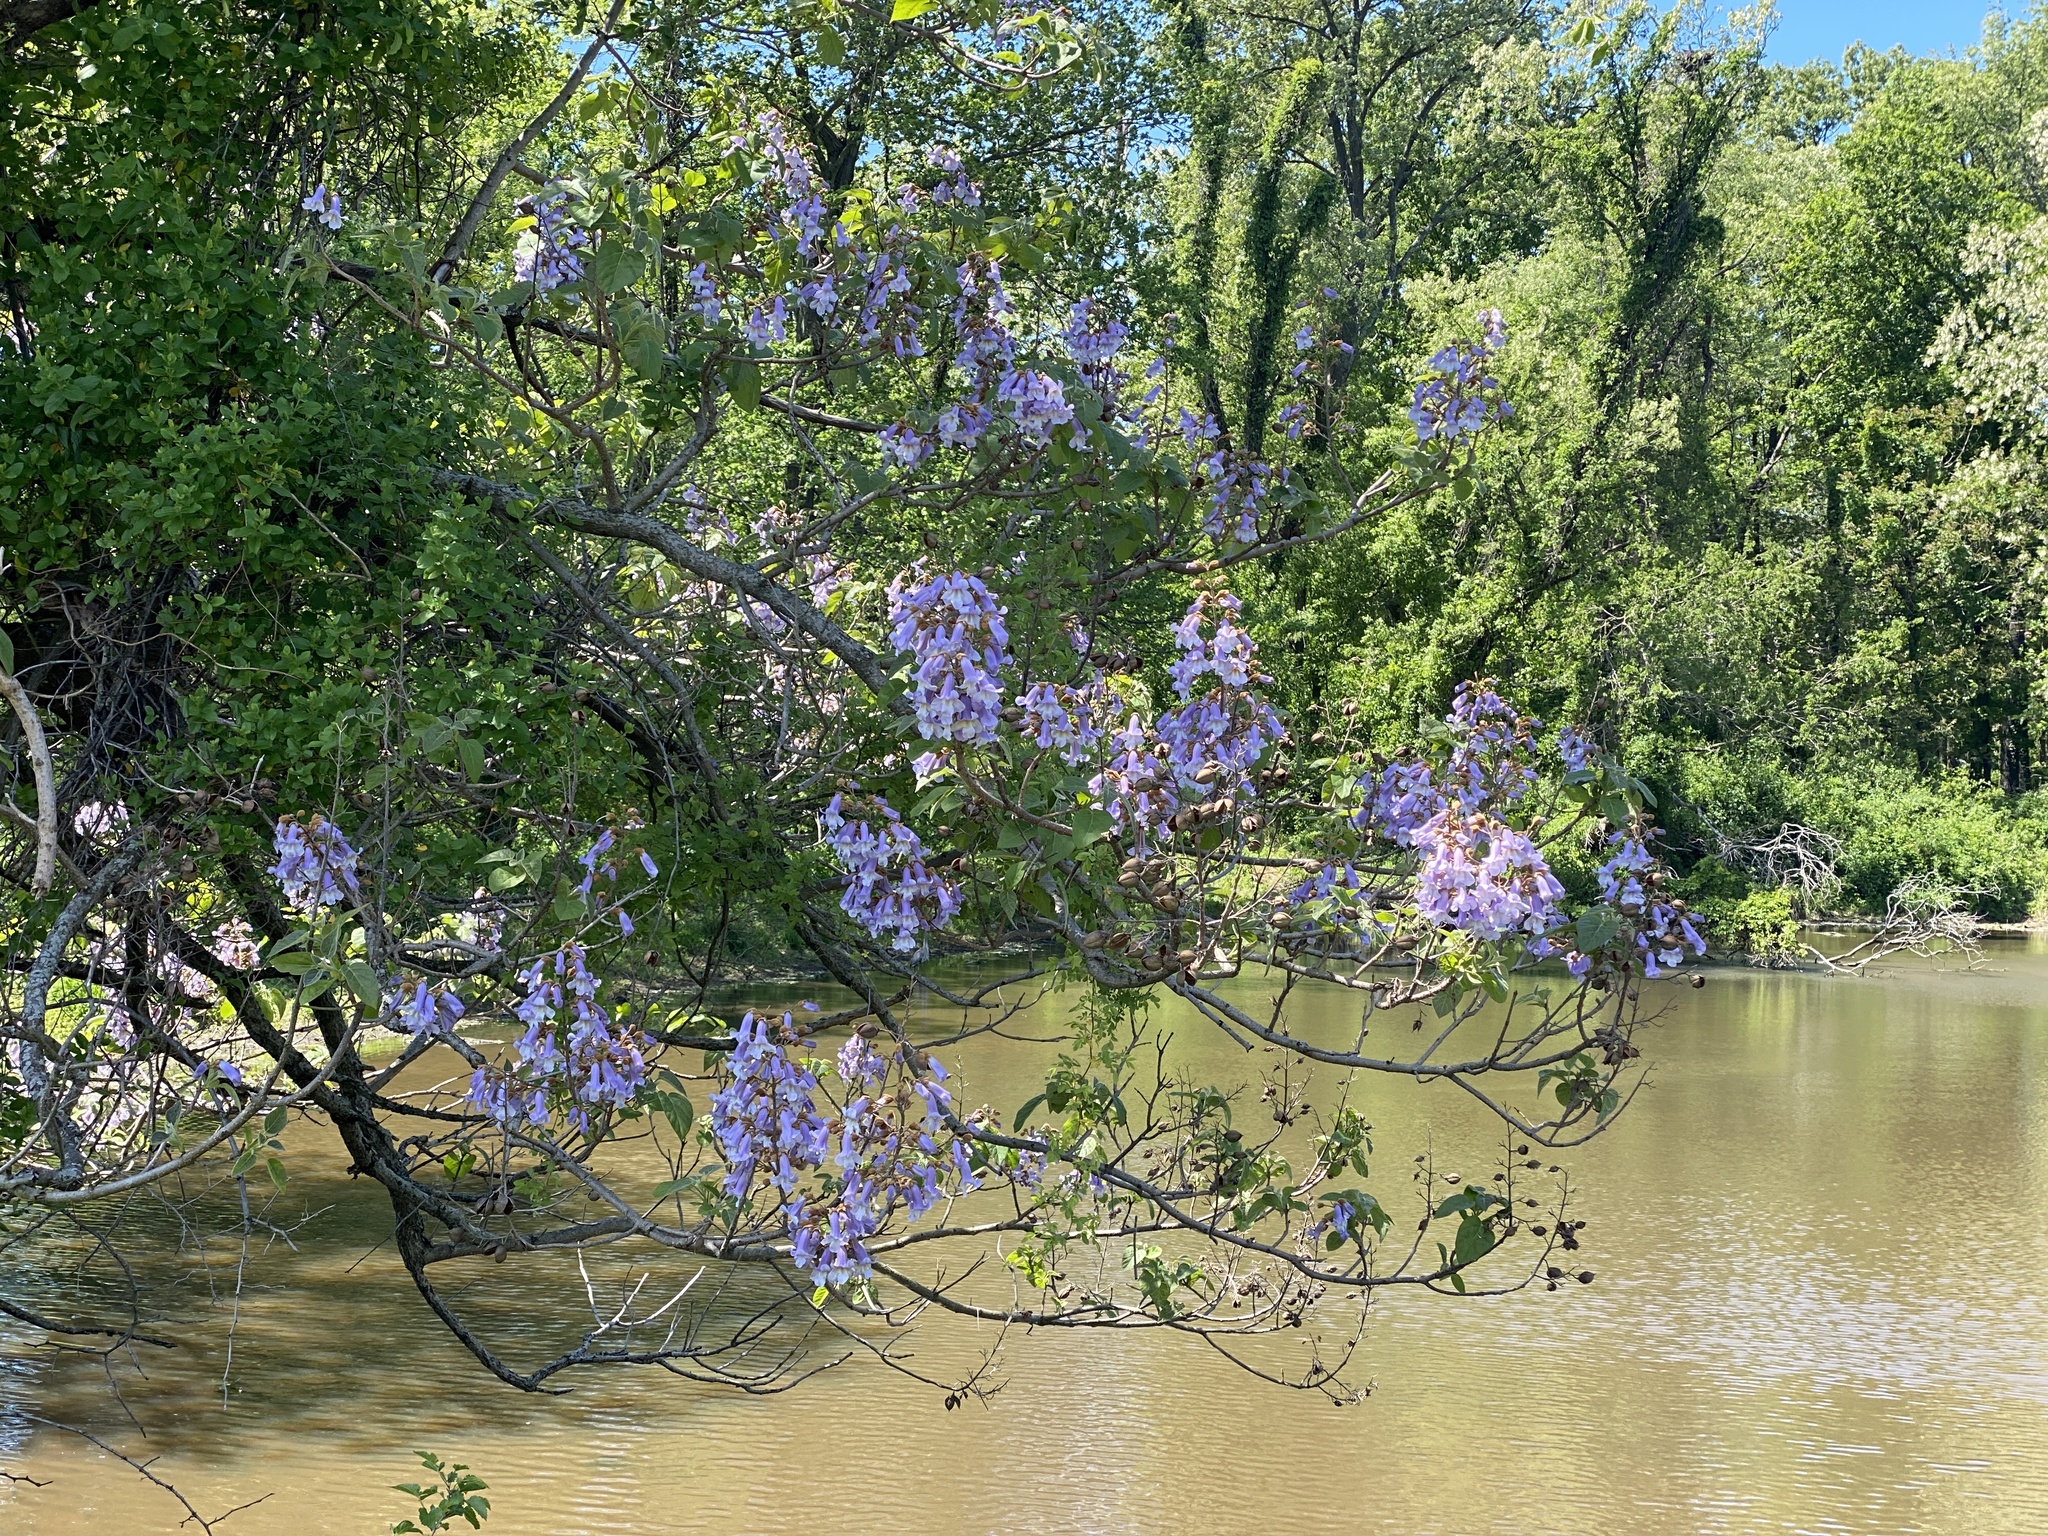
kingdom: Plantae
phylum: Tracheophyta
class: Magnoliopsida
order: Lamiales
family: Paulowniaceae
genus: Paulownia
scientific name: Paulownia tomentosa
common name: Foxglove-tree
